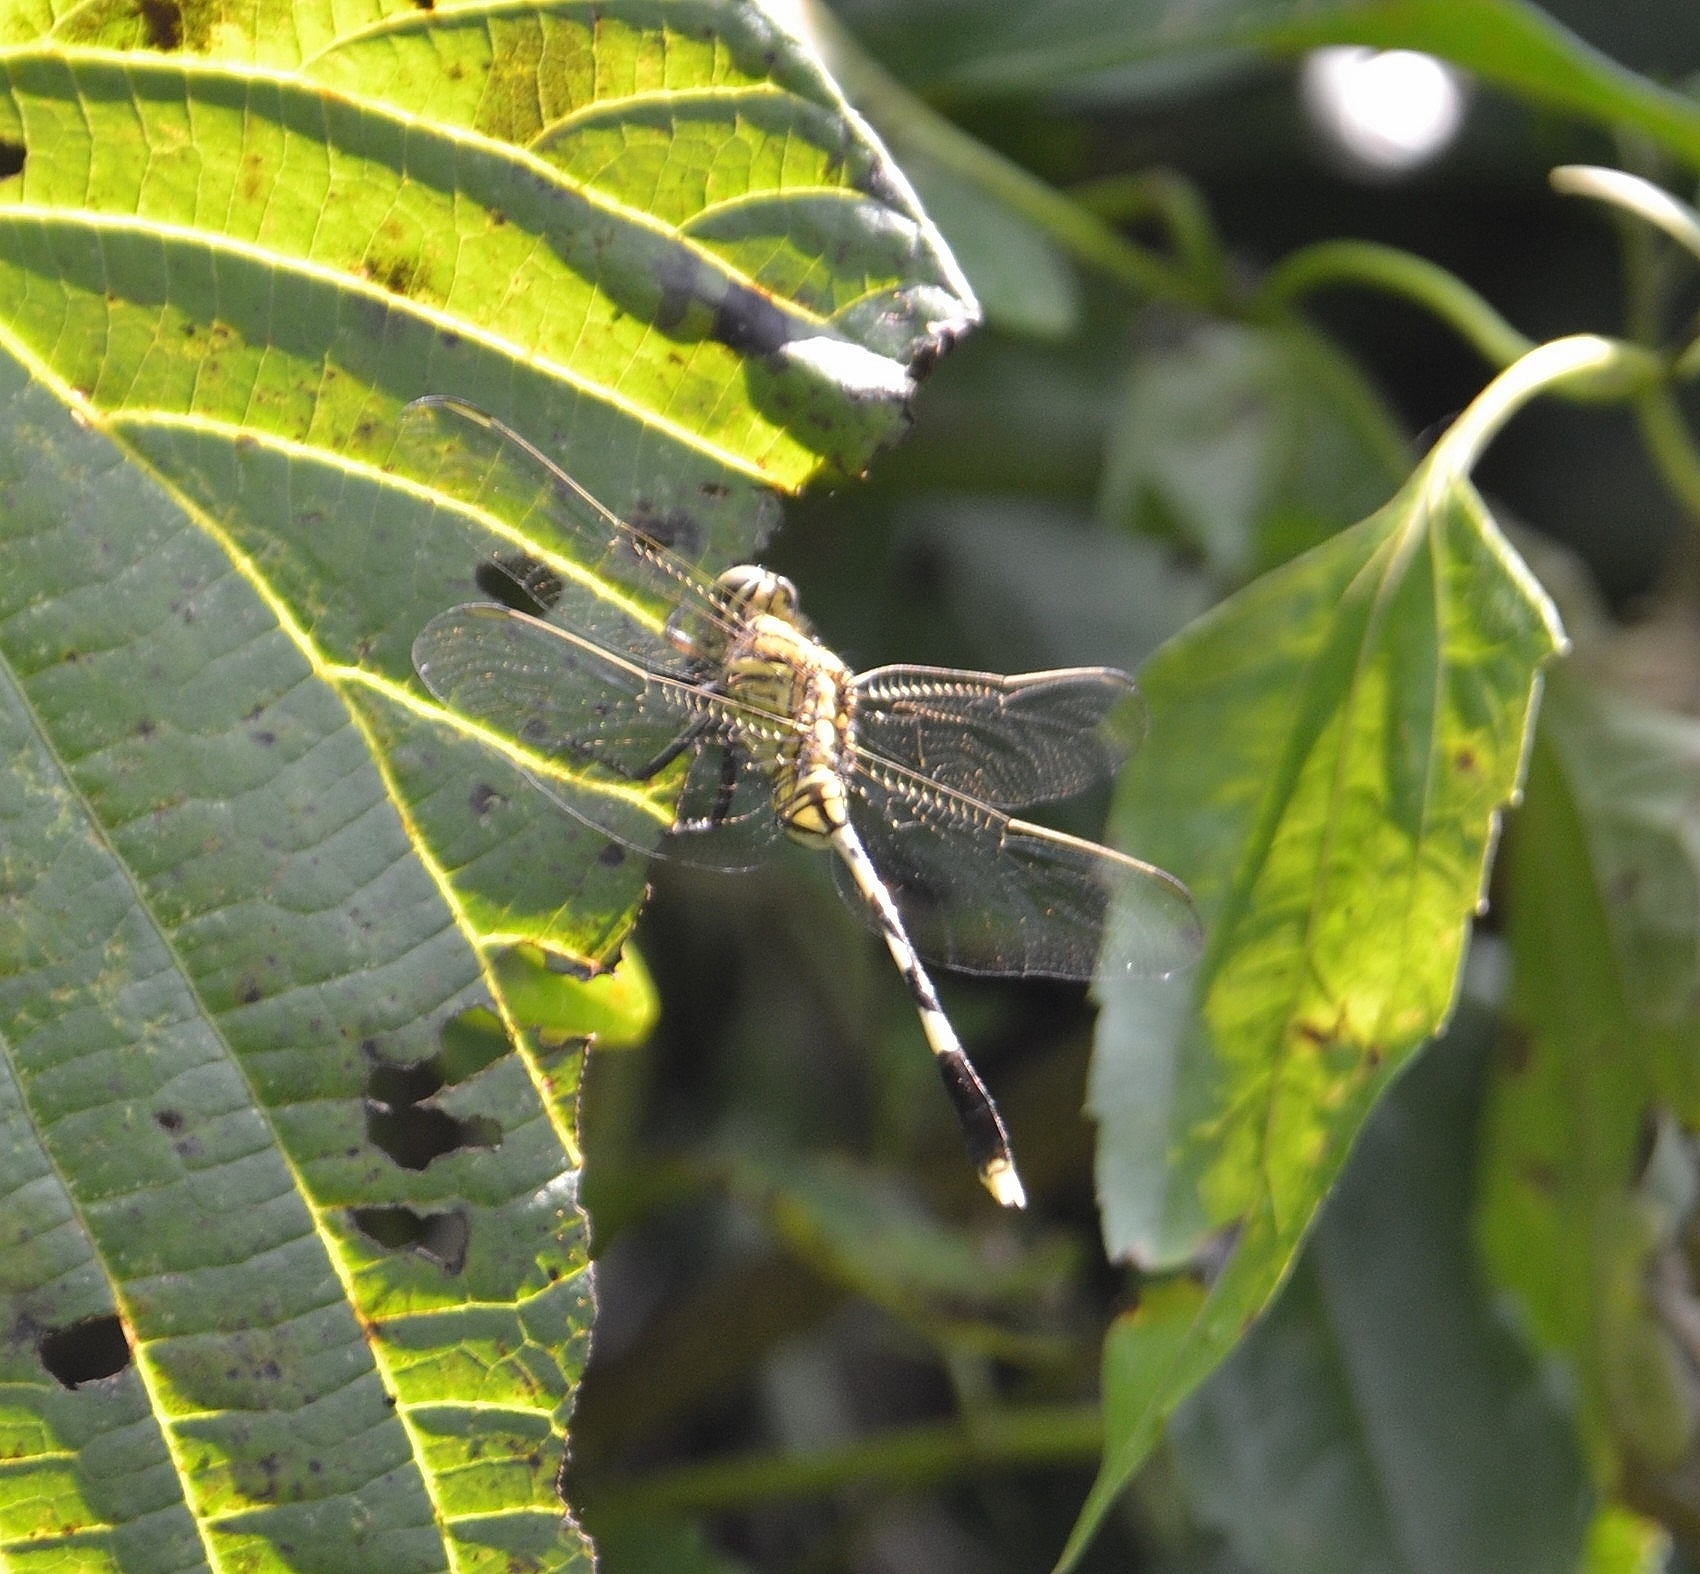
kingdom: Animalia
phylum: Arthropoda
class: Insecta
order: Odonata
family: Libellulidae
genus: Orthetrum
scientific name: Orthetrum sabina
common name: Slender skimmer
